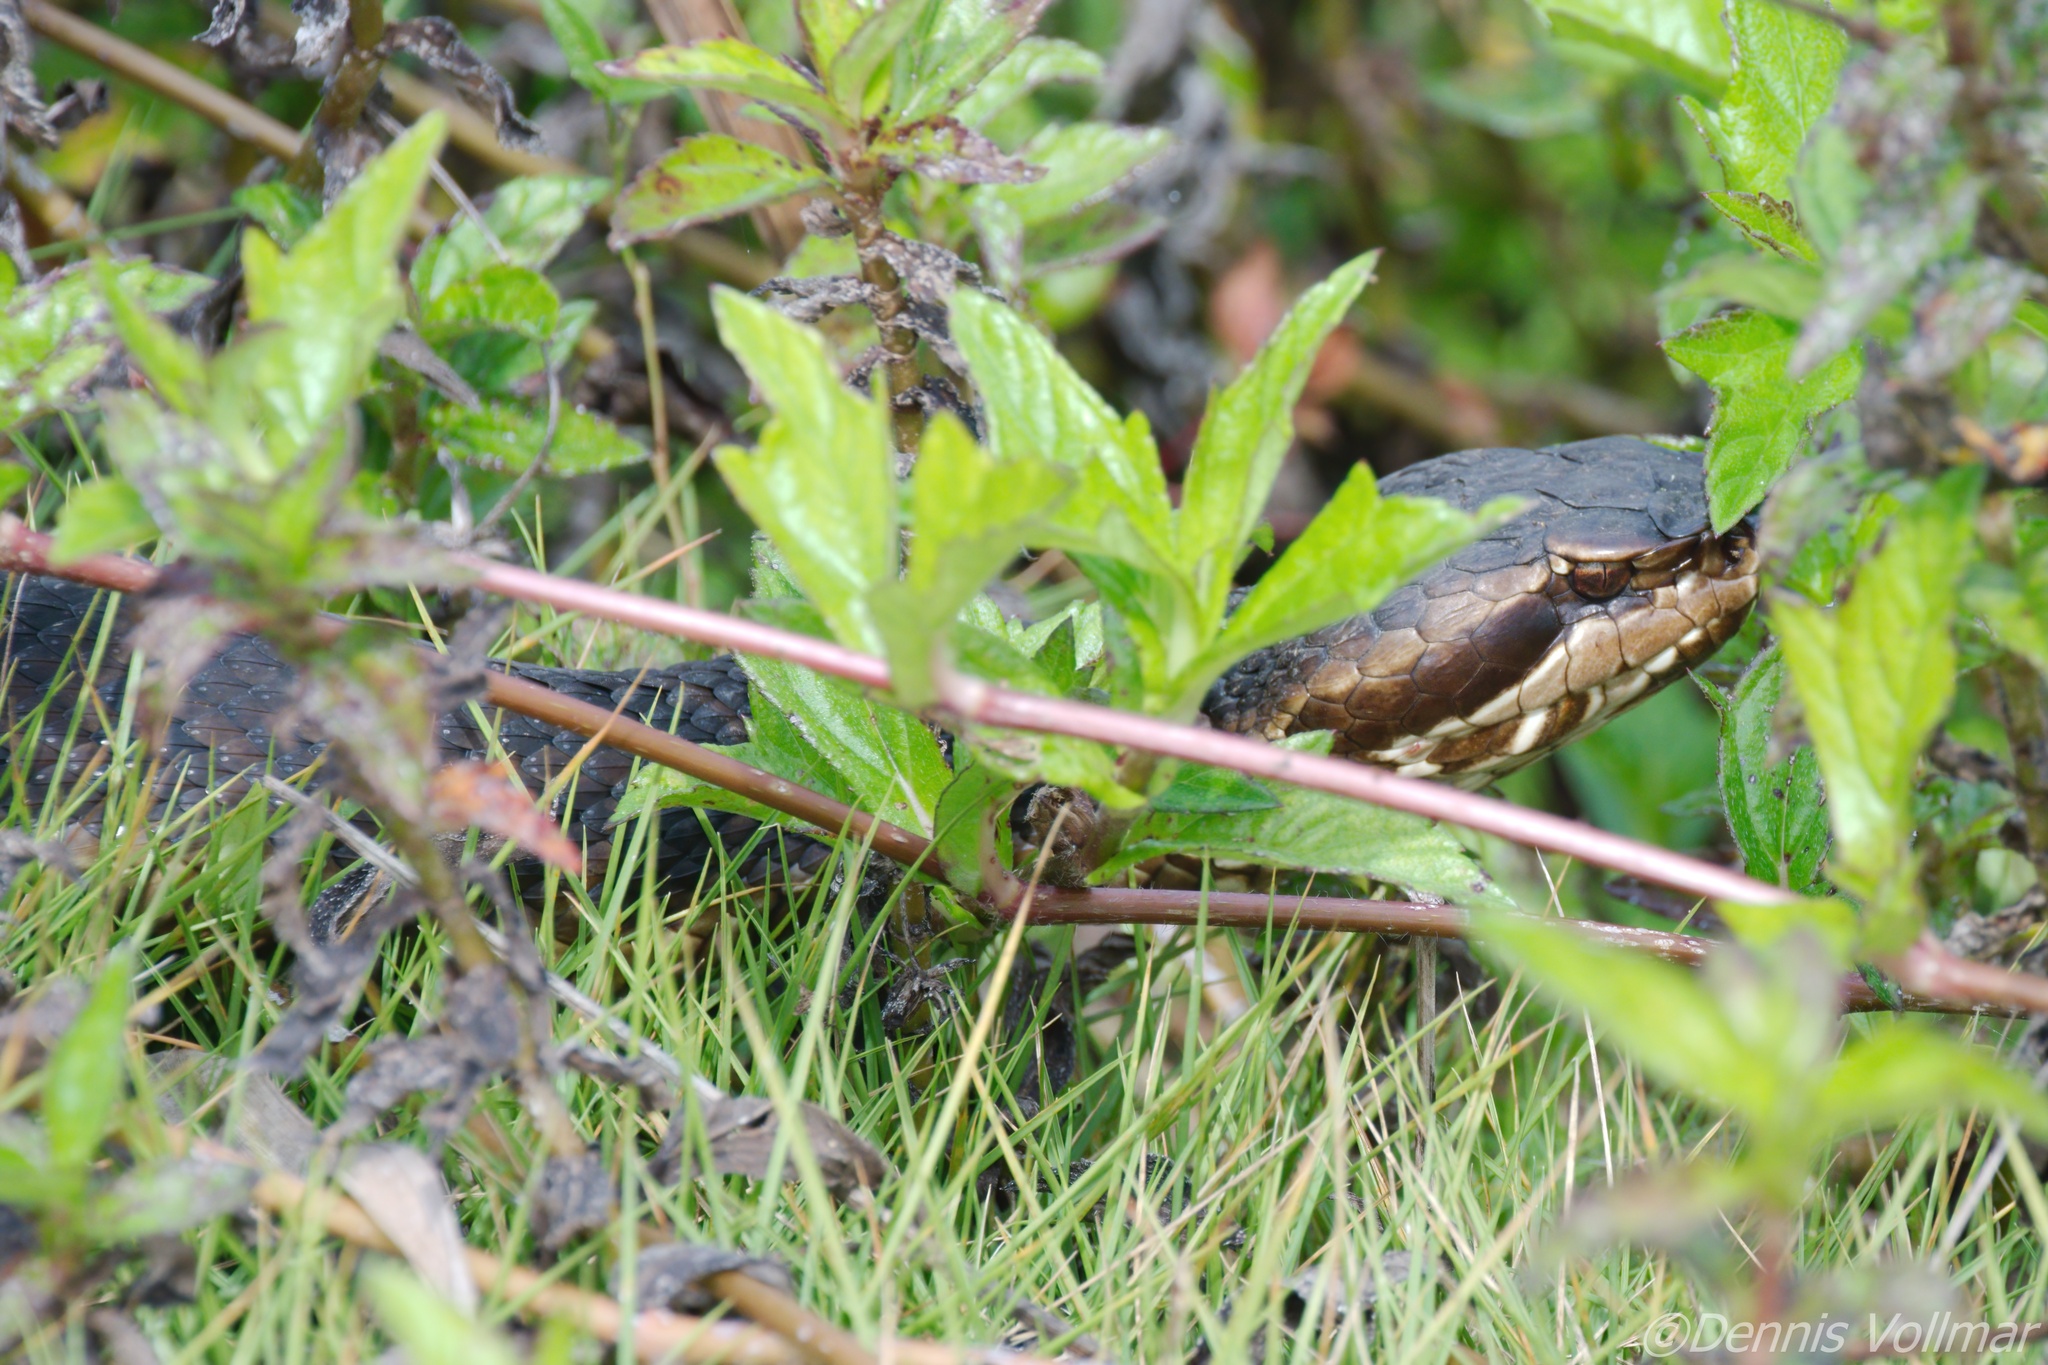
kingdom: Animalia
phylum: Chordata
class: Squamata
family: Viperidae
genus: Agkistrodon
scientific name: Agkistrodon conanti
